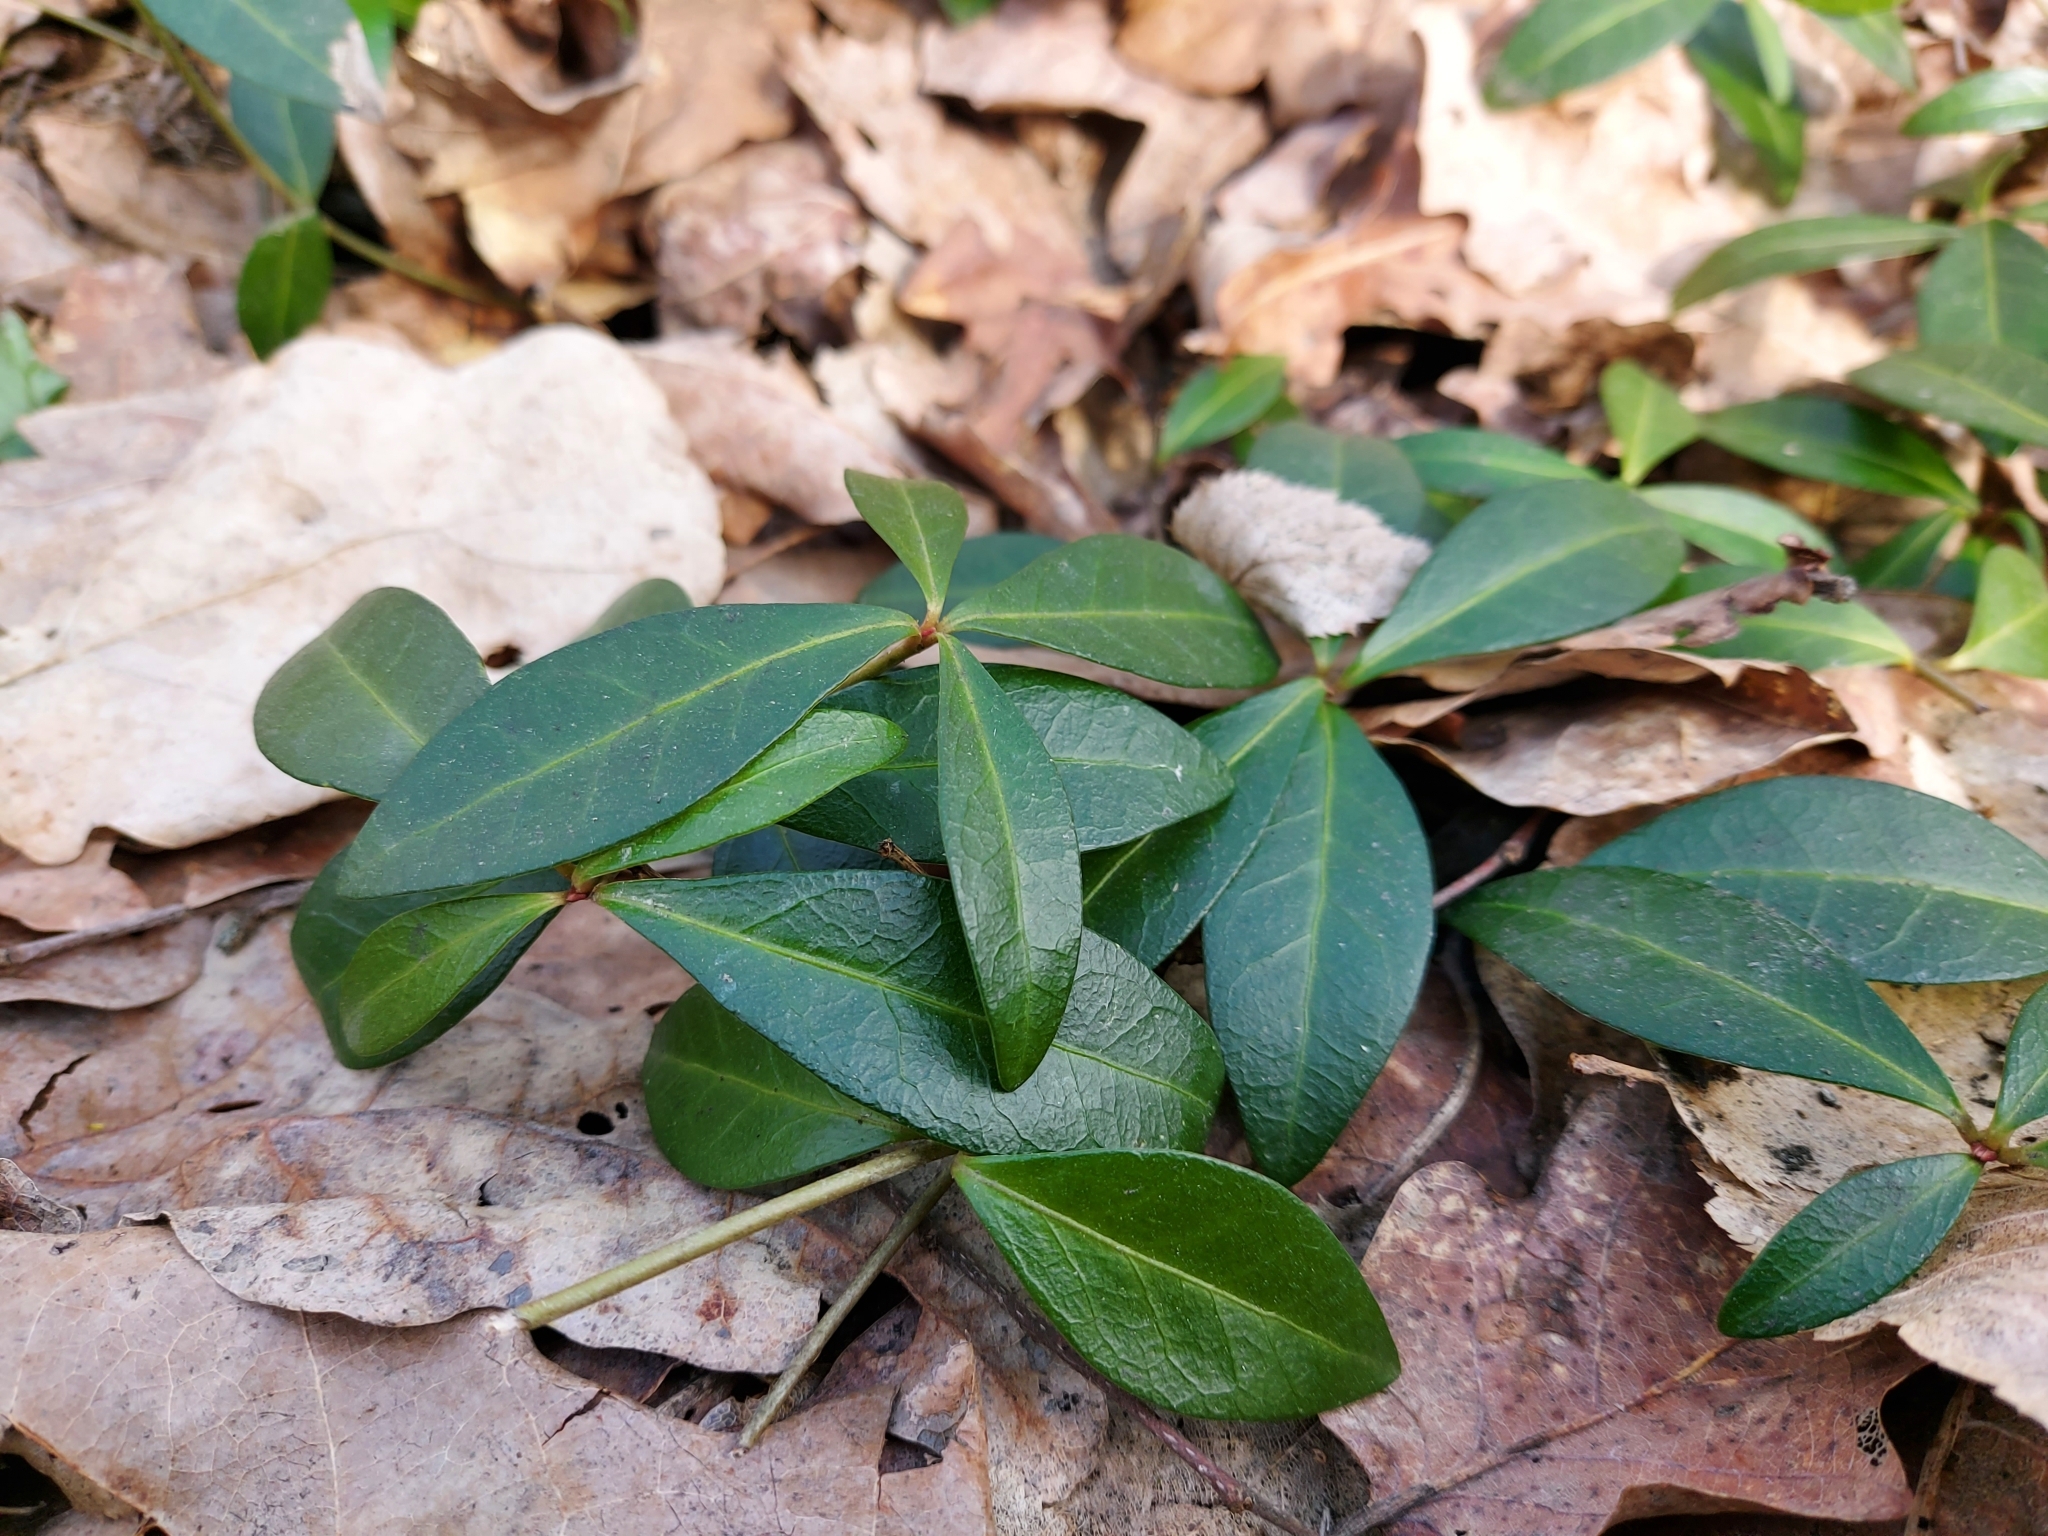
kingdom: Plantae
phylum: Tracheophyta
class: Magnoliopsida
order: Gentianales
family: Apocynaceae
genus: Vinca
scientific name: Vinca minor
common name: Lesser periwinkle
